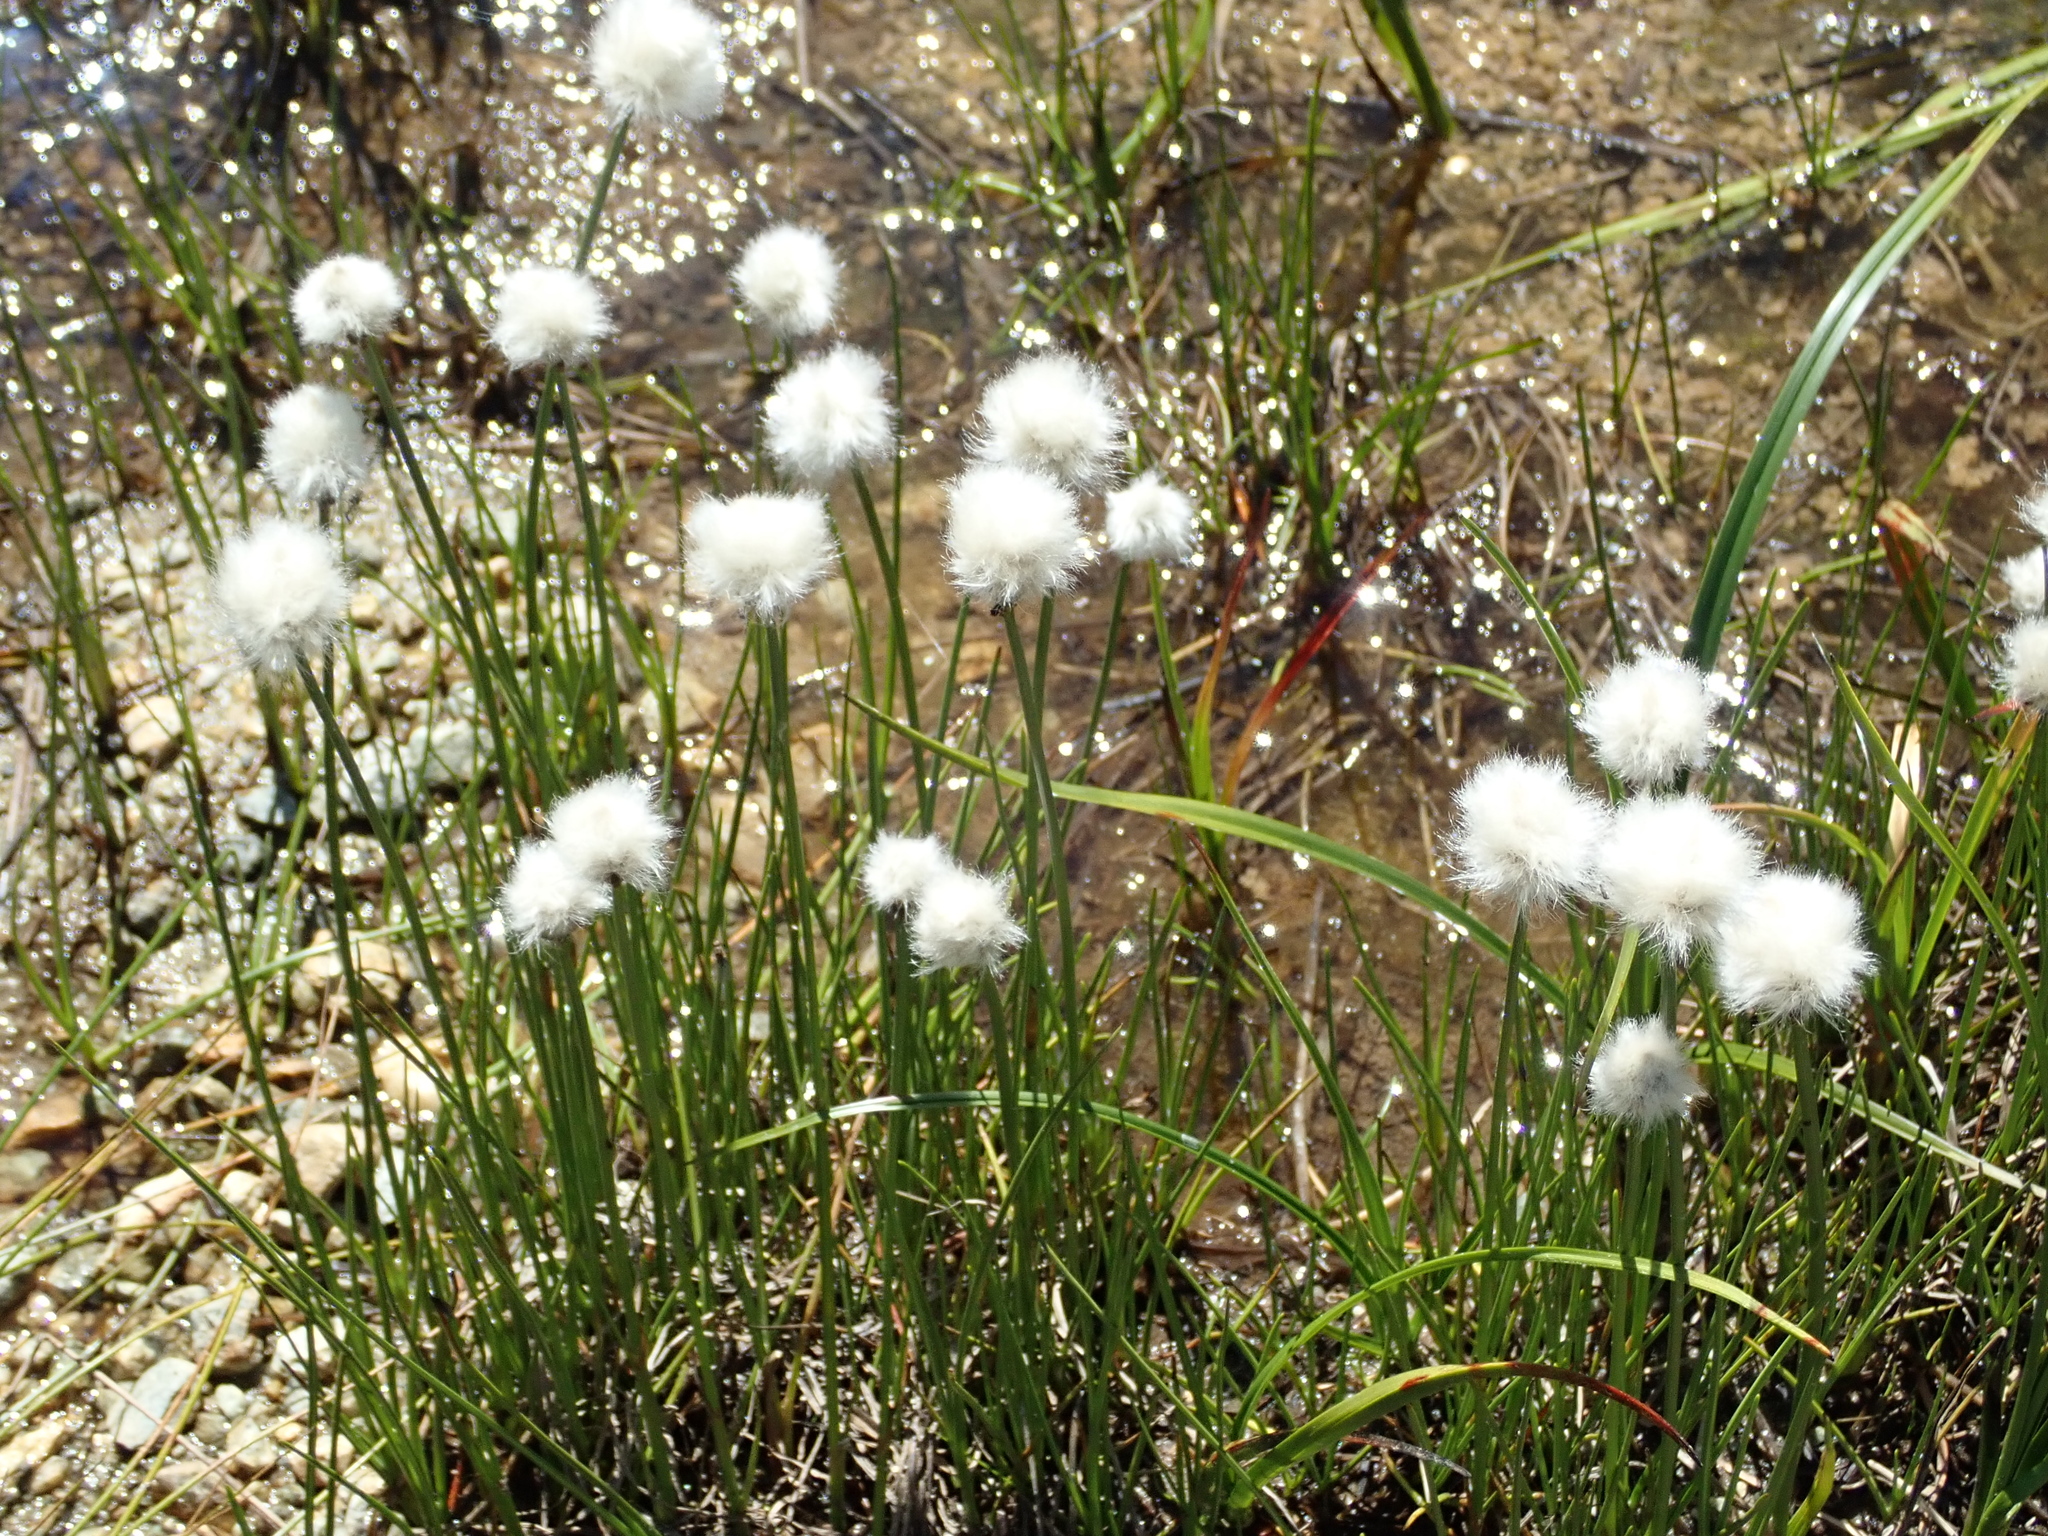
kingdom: Plantae
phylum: Tracheophyta
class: Liliopsida
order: Poales
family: Cyperaceae
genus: Eriophorum
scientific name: Eriophorum scheuchzeri
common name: Scheuchzer's cottongrass
